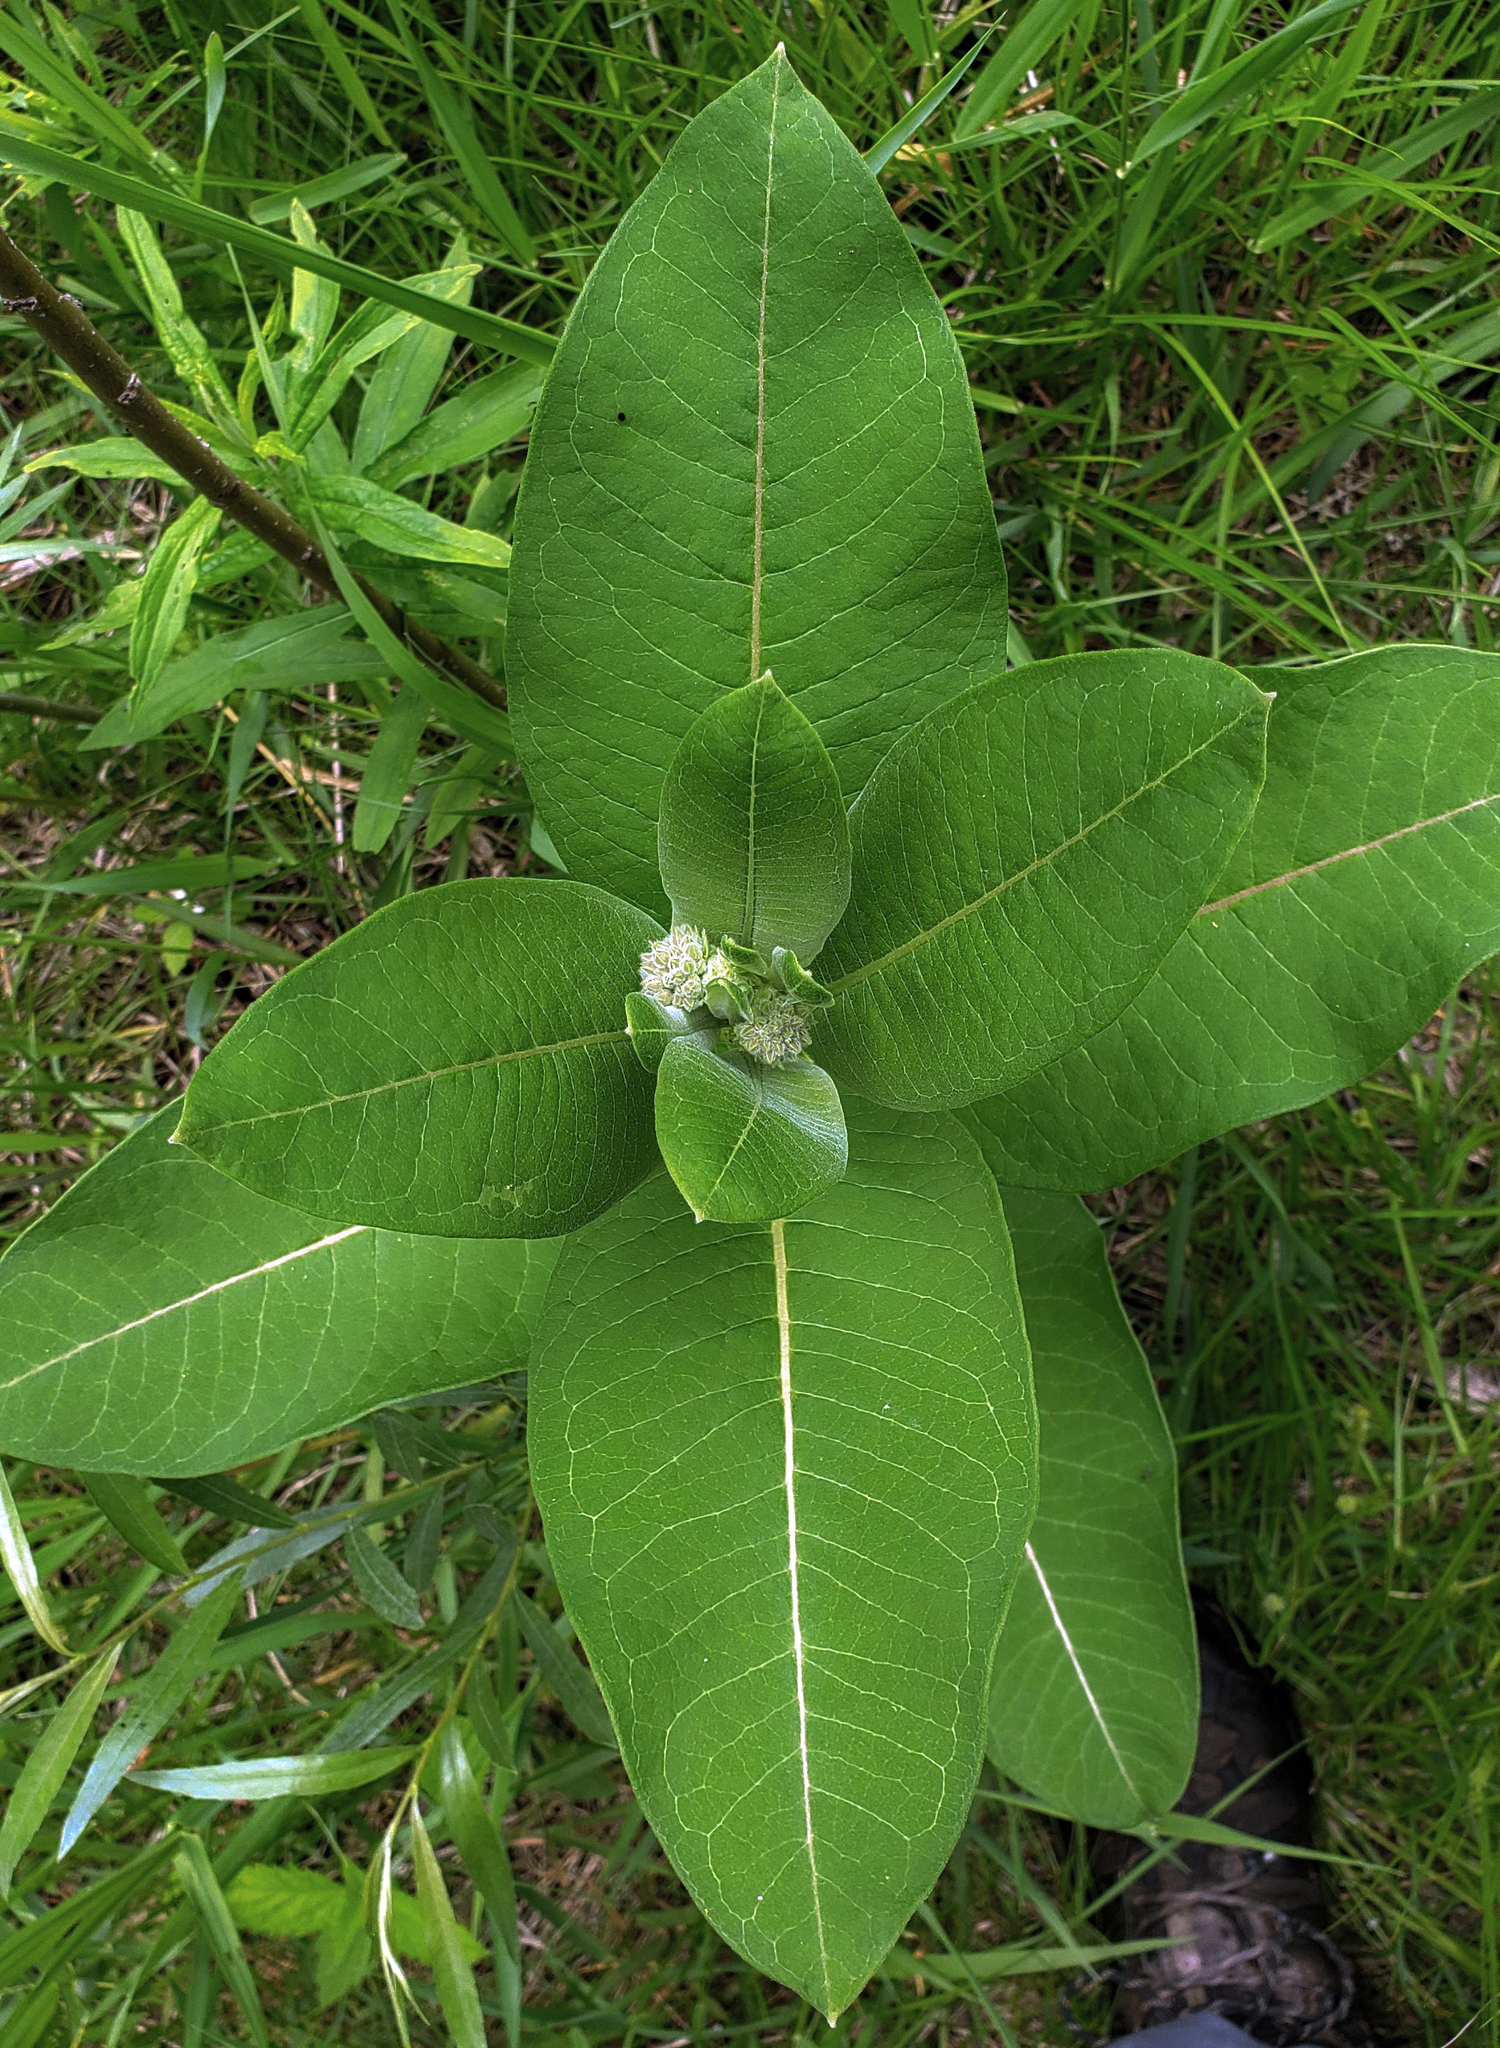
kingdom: Plantae
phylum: Tracheophyta
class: Magnoliopsida
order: Gentianales
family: Apocynaceae
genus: Asclepias
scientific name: Asclepias syriaca
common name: Common milkweed
